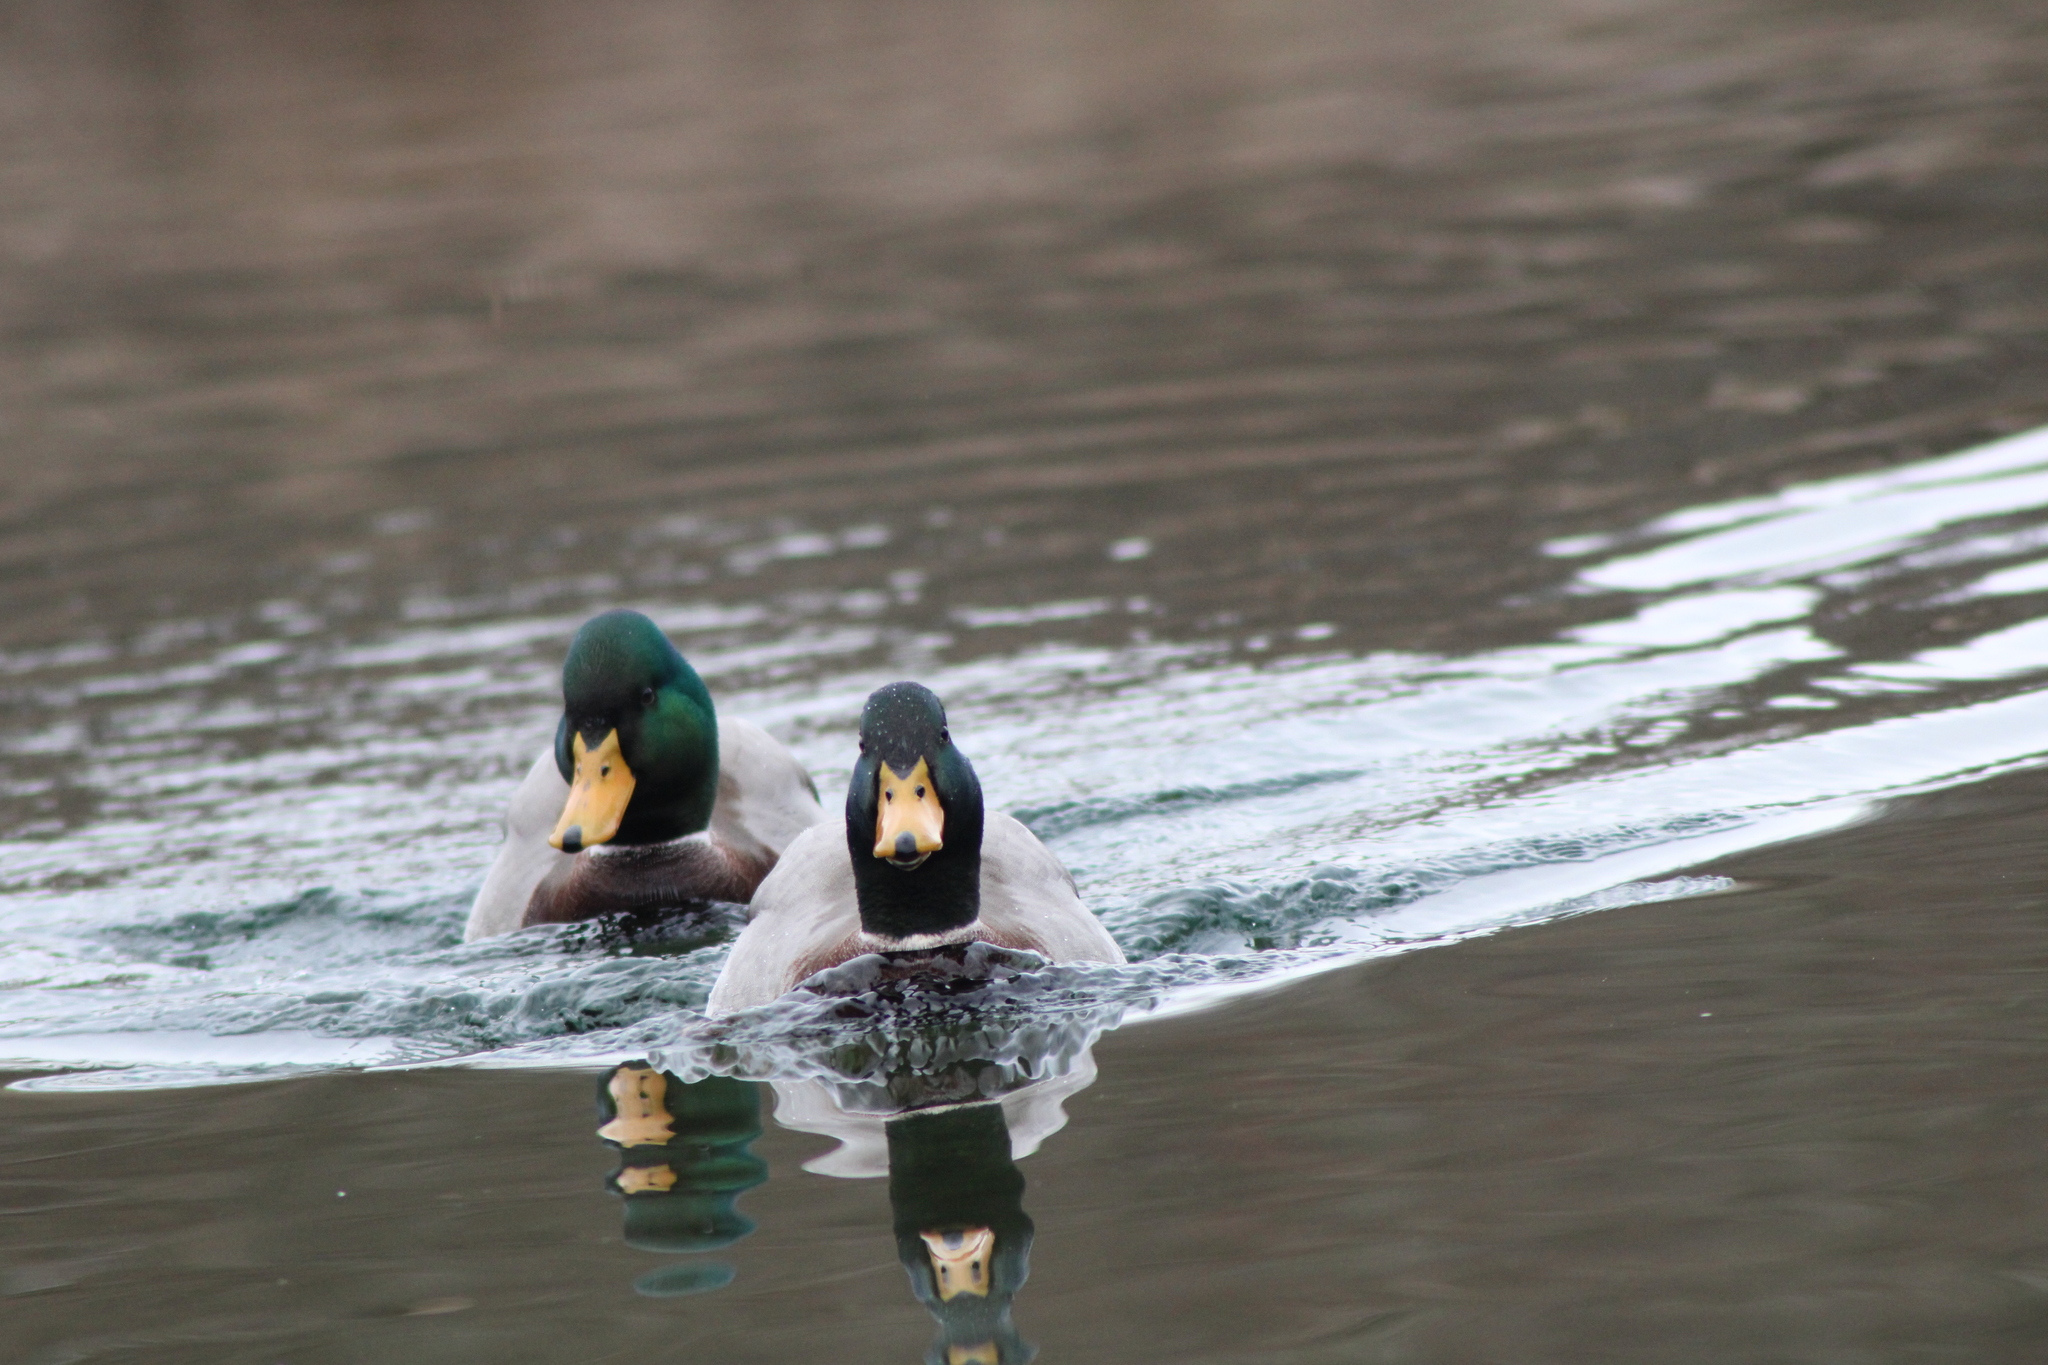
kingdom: Animalia
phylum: Chordata
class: Aves
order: Anseriformes
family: Anatidae
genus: Anas
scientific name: Anas platyrhynchos
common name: Mallard
